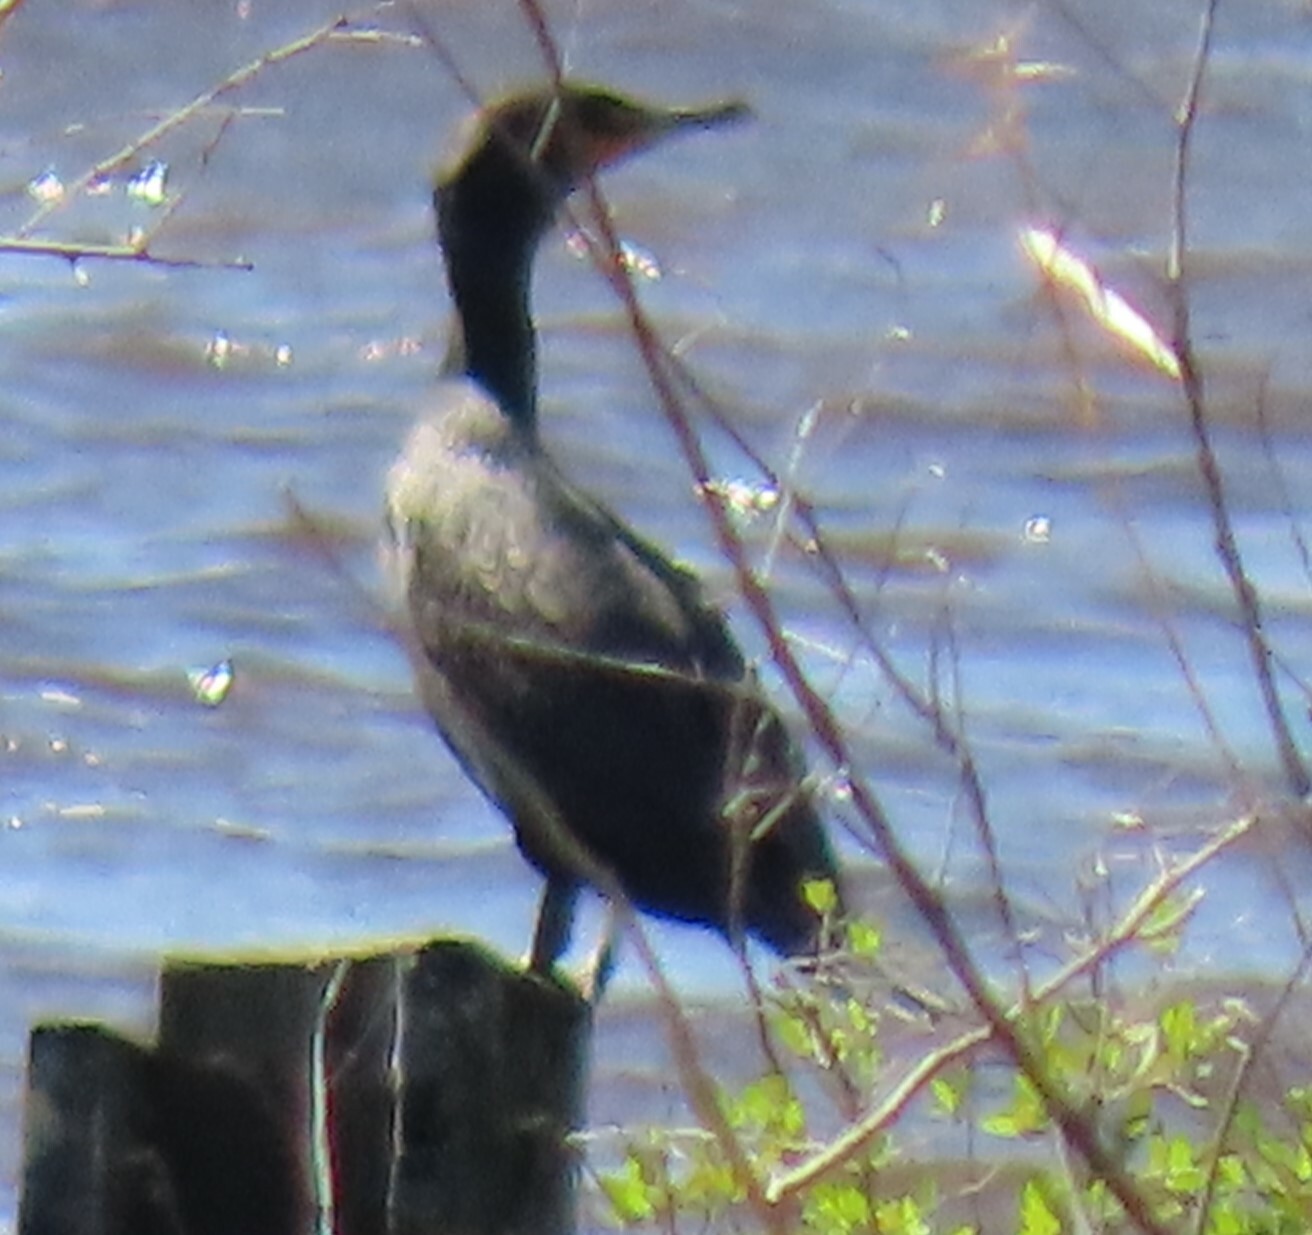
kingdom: Animalia
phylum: Chordata
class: Aves
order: Suliformes
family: Phalacrocoracidae
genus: Phalacrocorax
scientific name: Phalacrocorax auritus
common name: Double-crested cormorant
